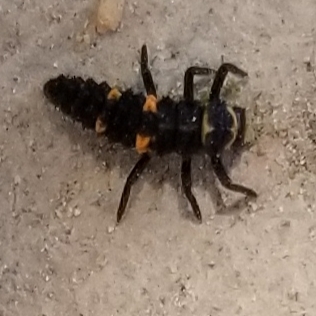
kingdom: Animalia
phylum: Arthropoda
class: Insecta
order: Coleoptera
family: Coccinellidae
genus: Hippodamia
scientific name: Hippodamia convergens
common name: Convergent lady beetle
